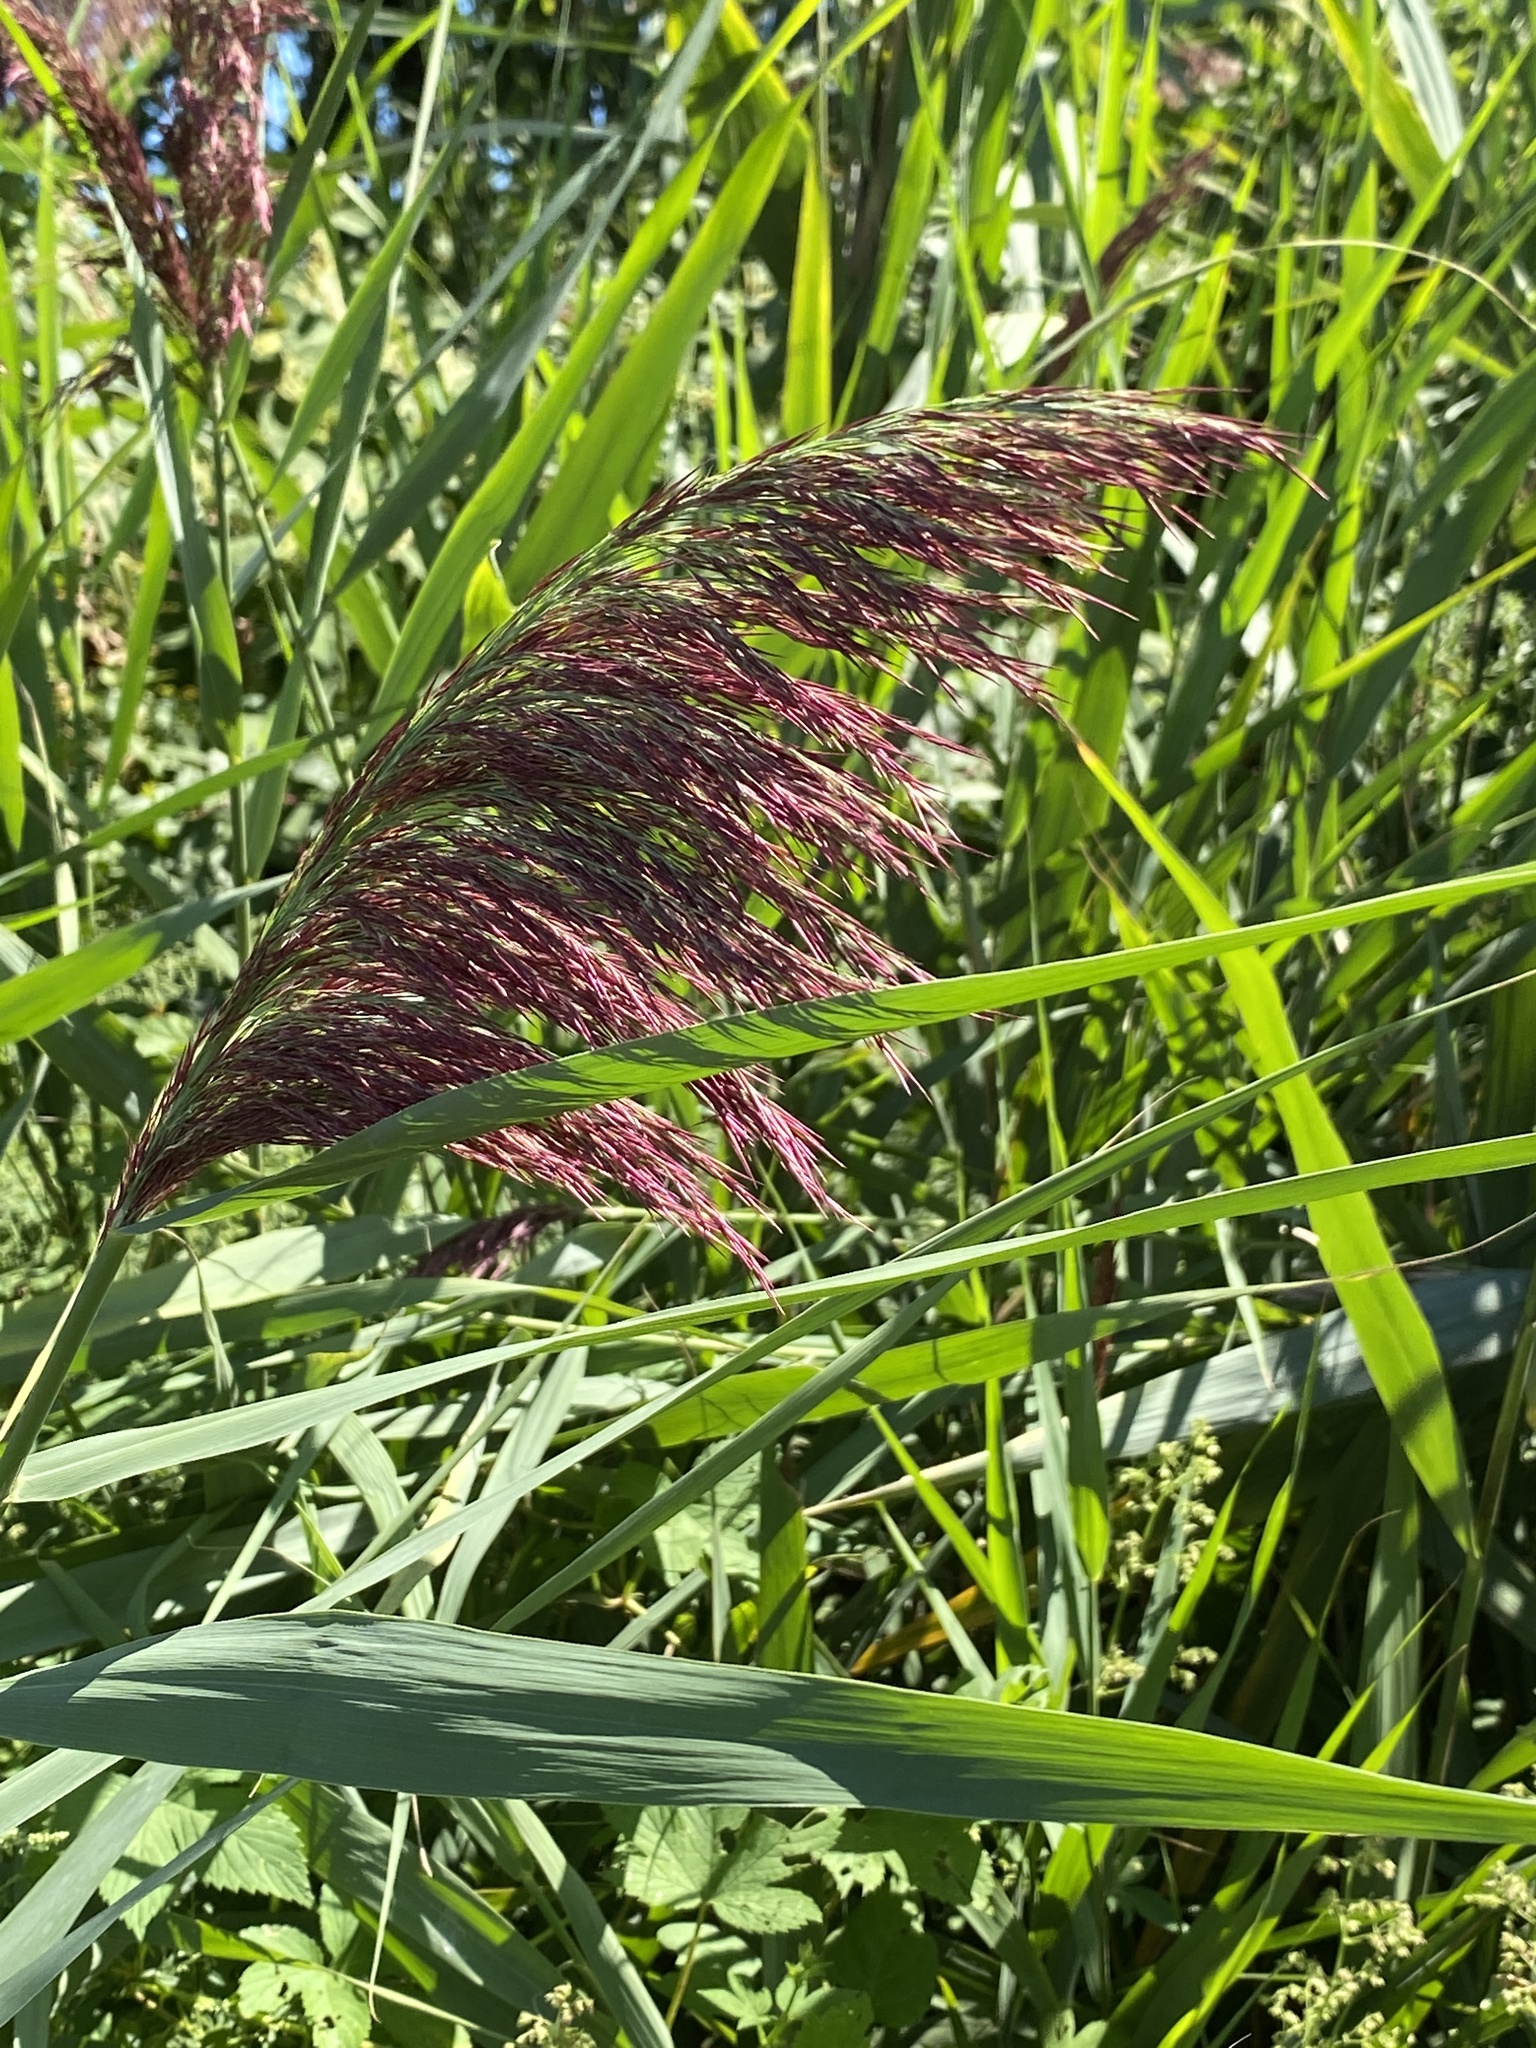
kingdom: Plantae
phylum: Tracheophyta
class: Liliopsida
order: Poales
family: Poaceae
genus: Phragmites
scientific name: Phragmites australis
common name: Common reed
